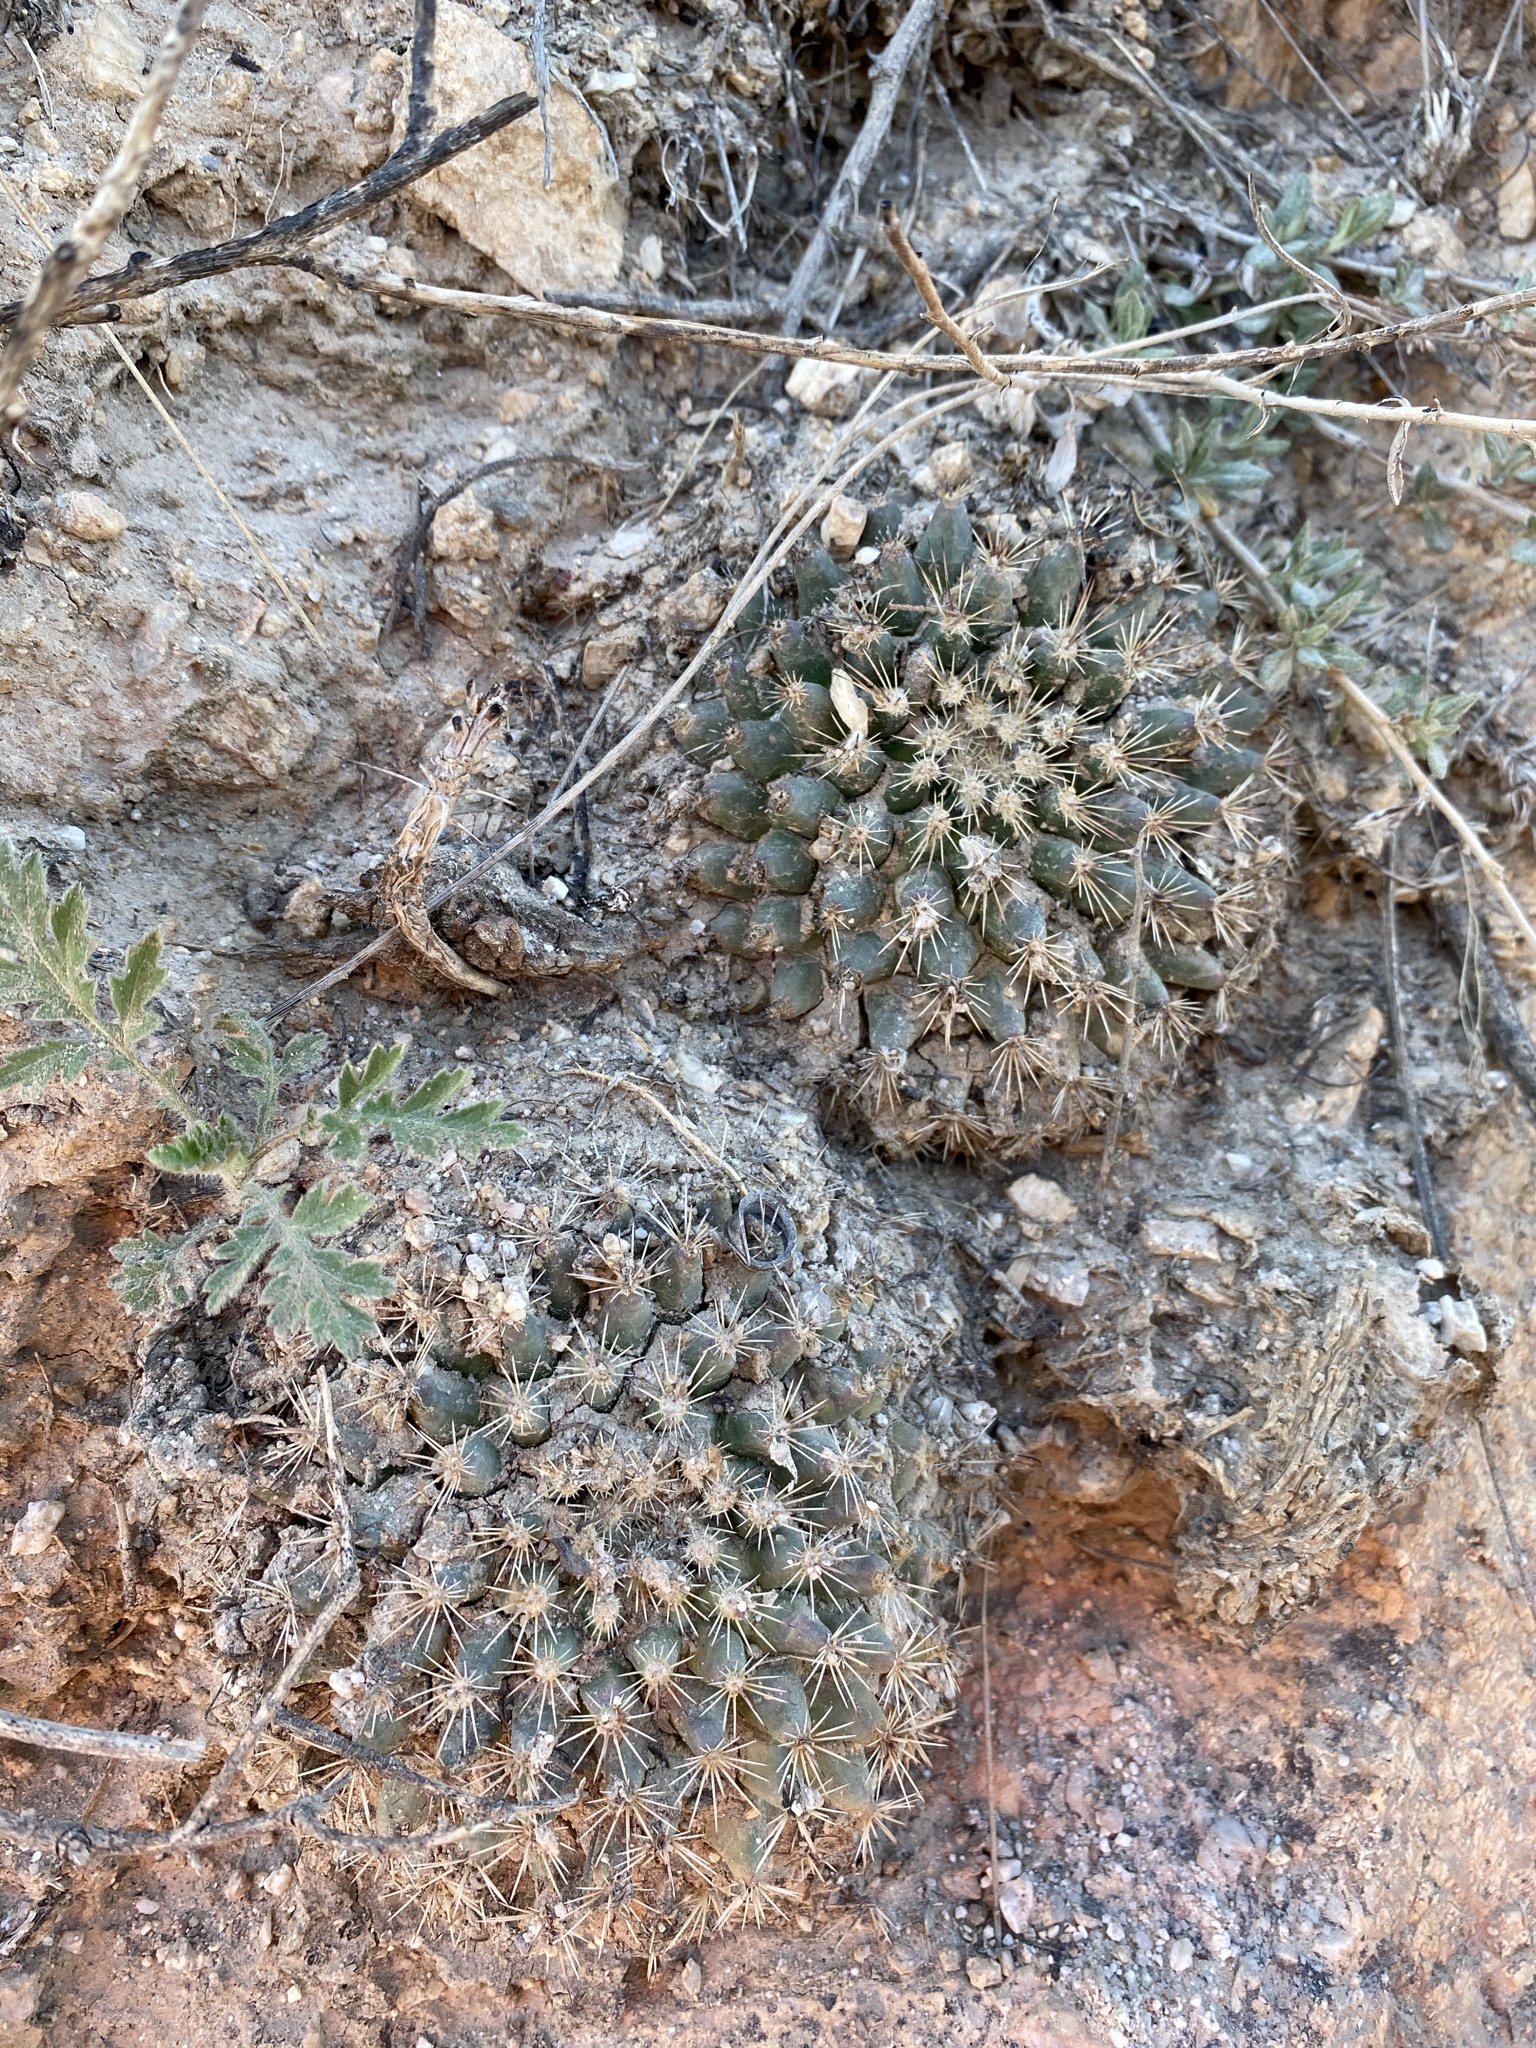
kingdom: Plantae
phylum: Tracheophyta
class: Magnoliopsida
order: Caryophyllales
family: Cactaceae
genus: Mammillaria
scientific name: Mammillaria heyderi
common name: Little nipple cactus
